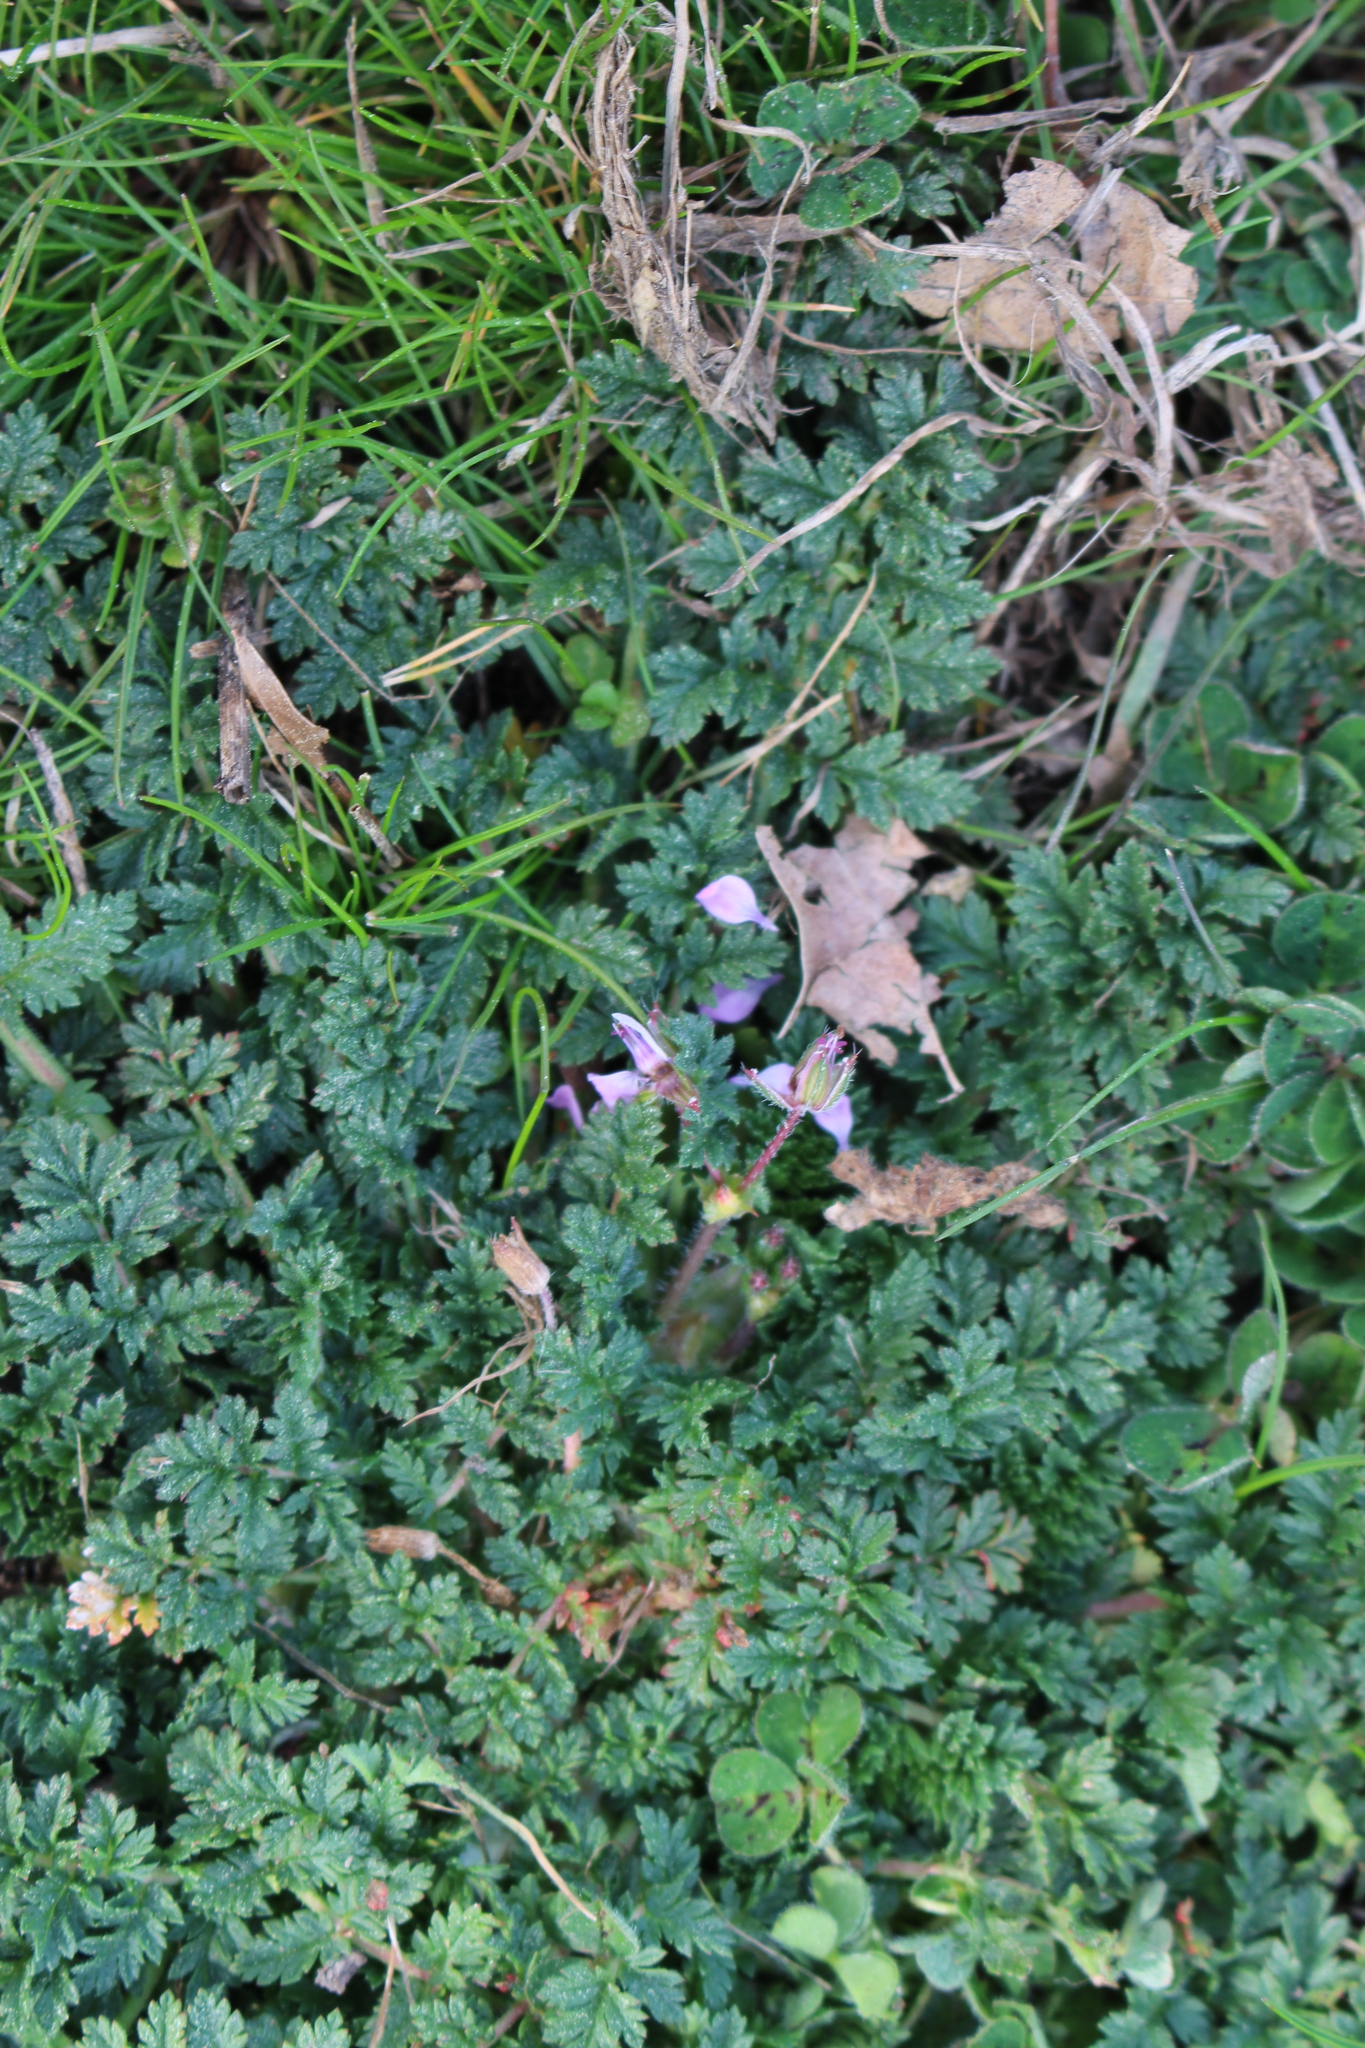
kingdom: Plantae
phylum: Tracheophyta
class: Magnoliopsida
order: Geraniales
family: Geraniaceae
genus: Erodium
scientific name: Erodium cicutarium
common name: Common stork's-bill
